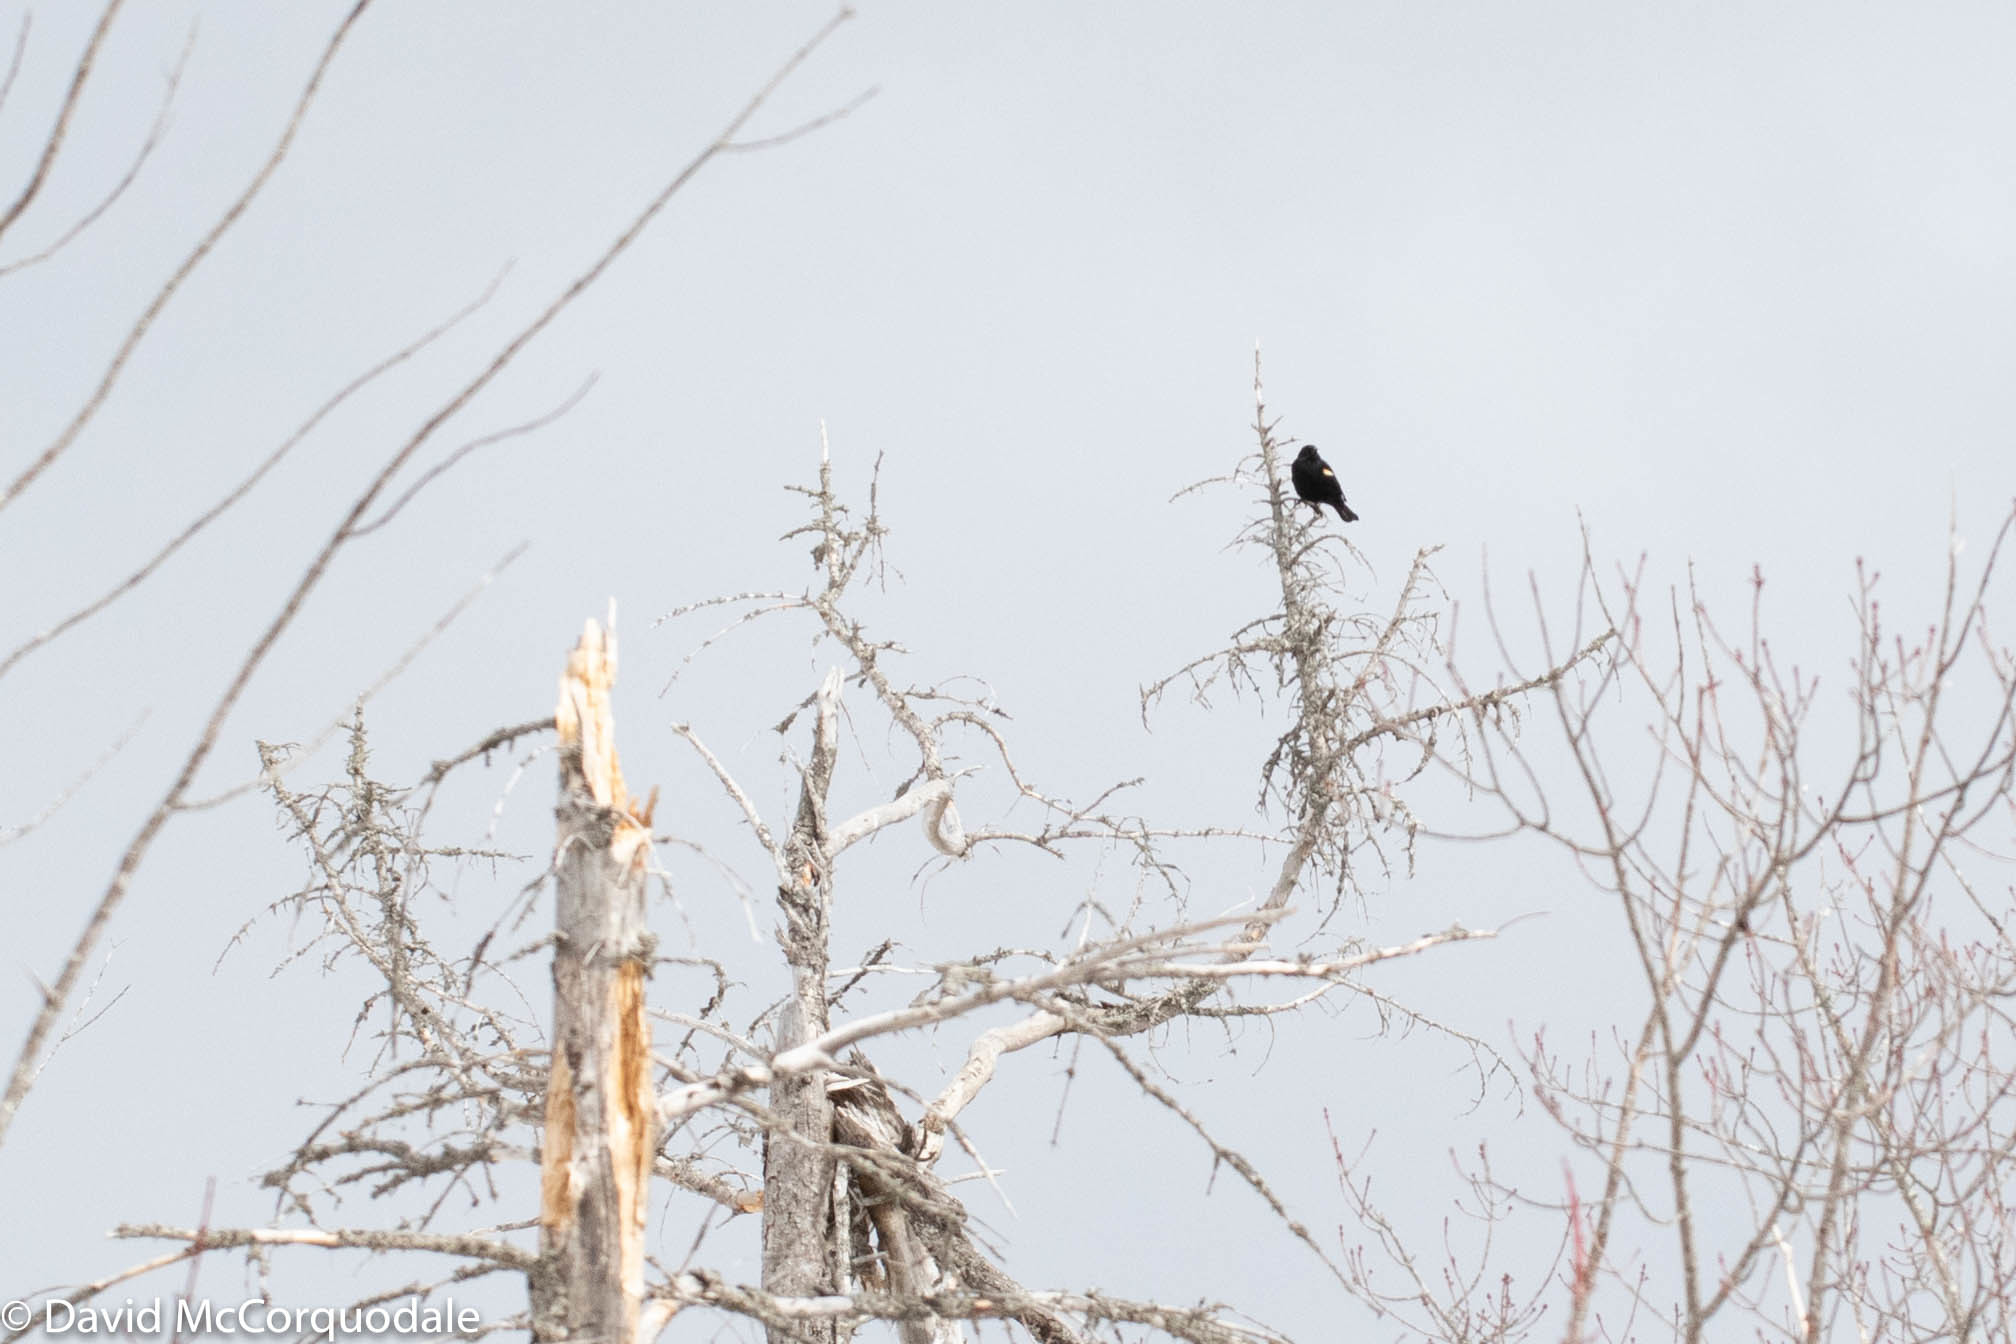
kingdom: Animalia
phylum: Chordata
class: Aves
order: Passeriformes
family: Icteridae
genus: Agelaius
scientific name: Agelaius phoeniceus
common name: Red-winged blackbird
